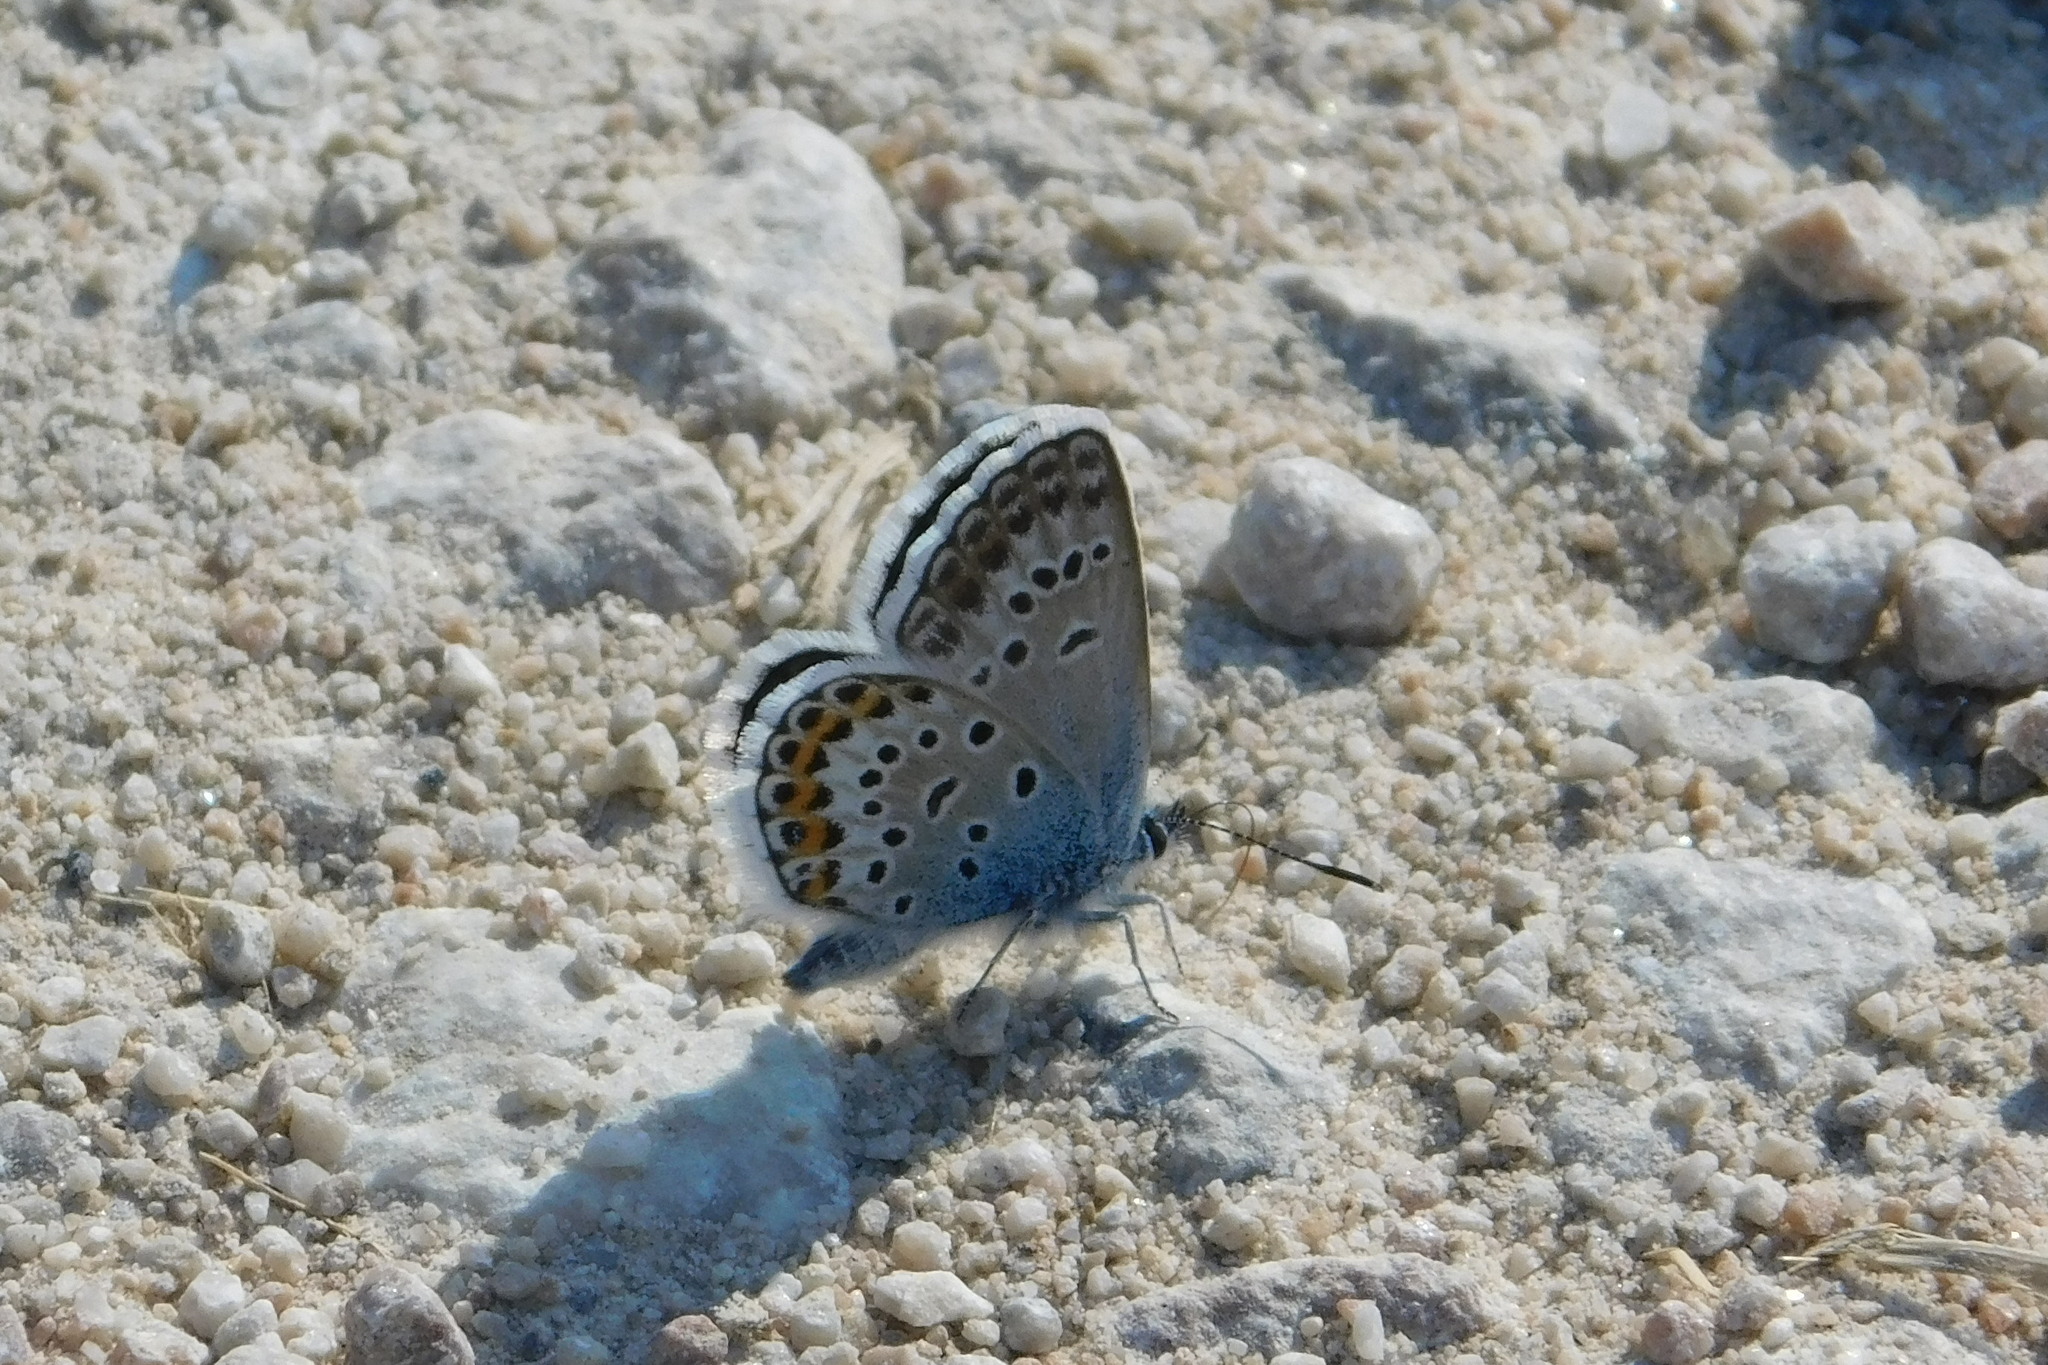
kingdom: Animalia
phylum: Arthropoda
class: Insecta
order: Lepidoptera
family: Lycaenidae
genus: Plebejus
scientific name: Plebejus argus
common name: Silver-studded blue
